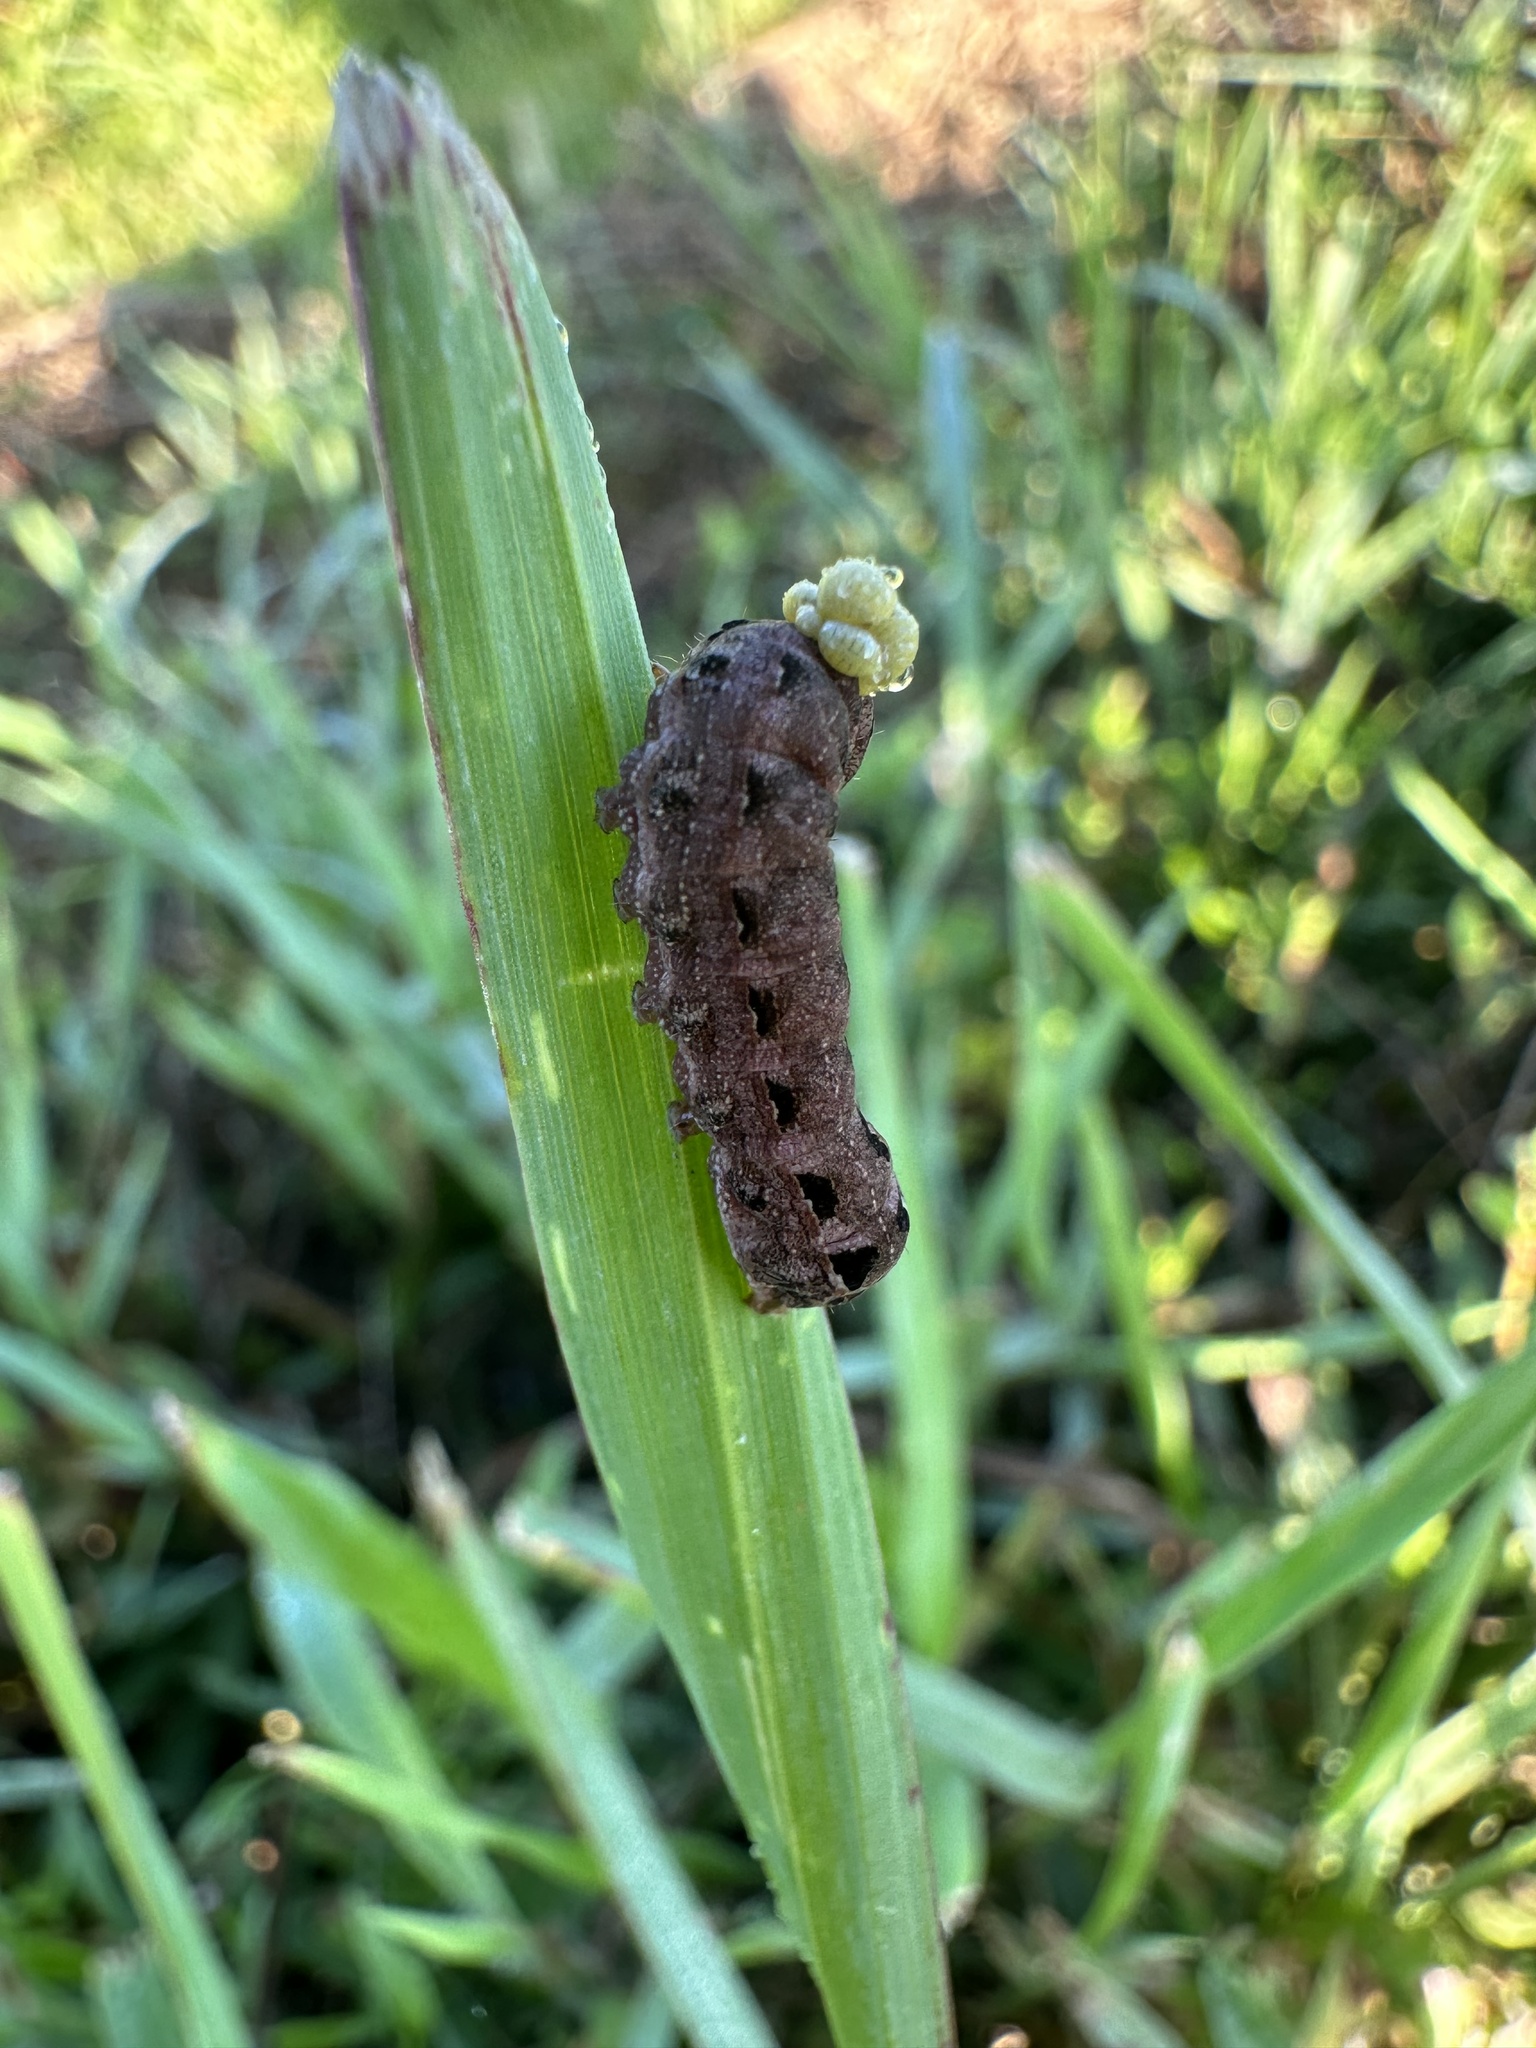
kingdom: Animalia
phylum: Arthropoda
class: Insecta
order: Lepidoptera
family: Noctuidae
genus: Spodoptera
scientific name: Spodoptera dolichos
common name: Sweetpotato armyworm
